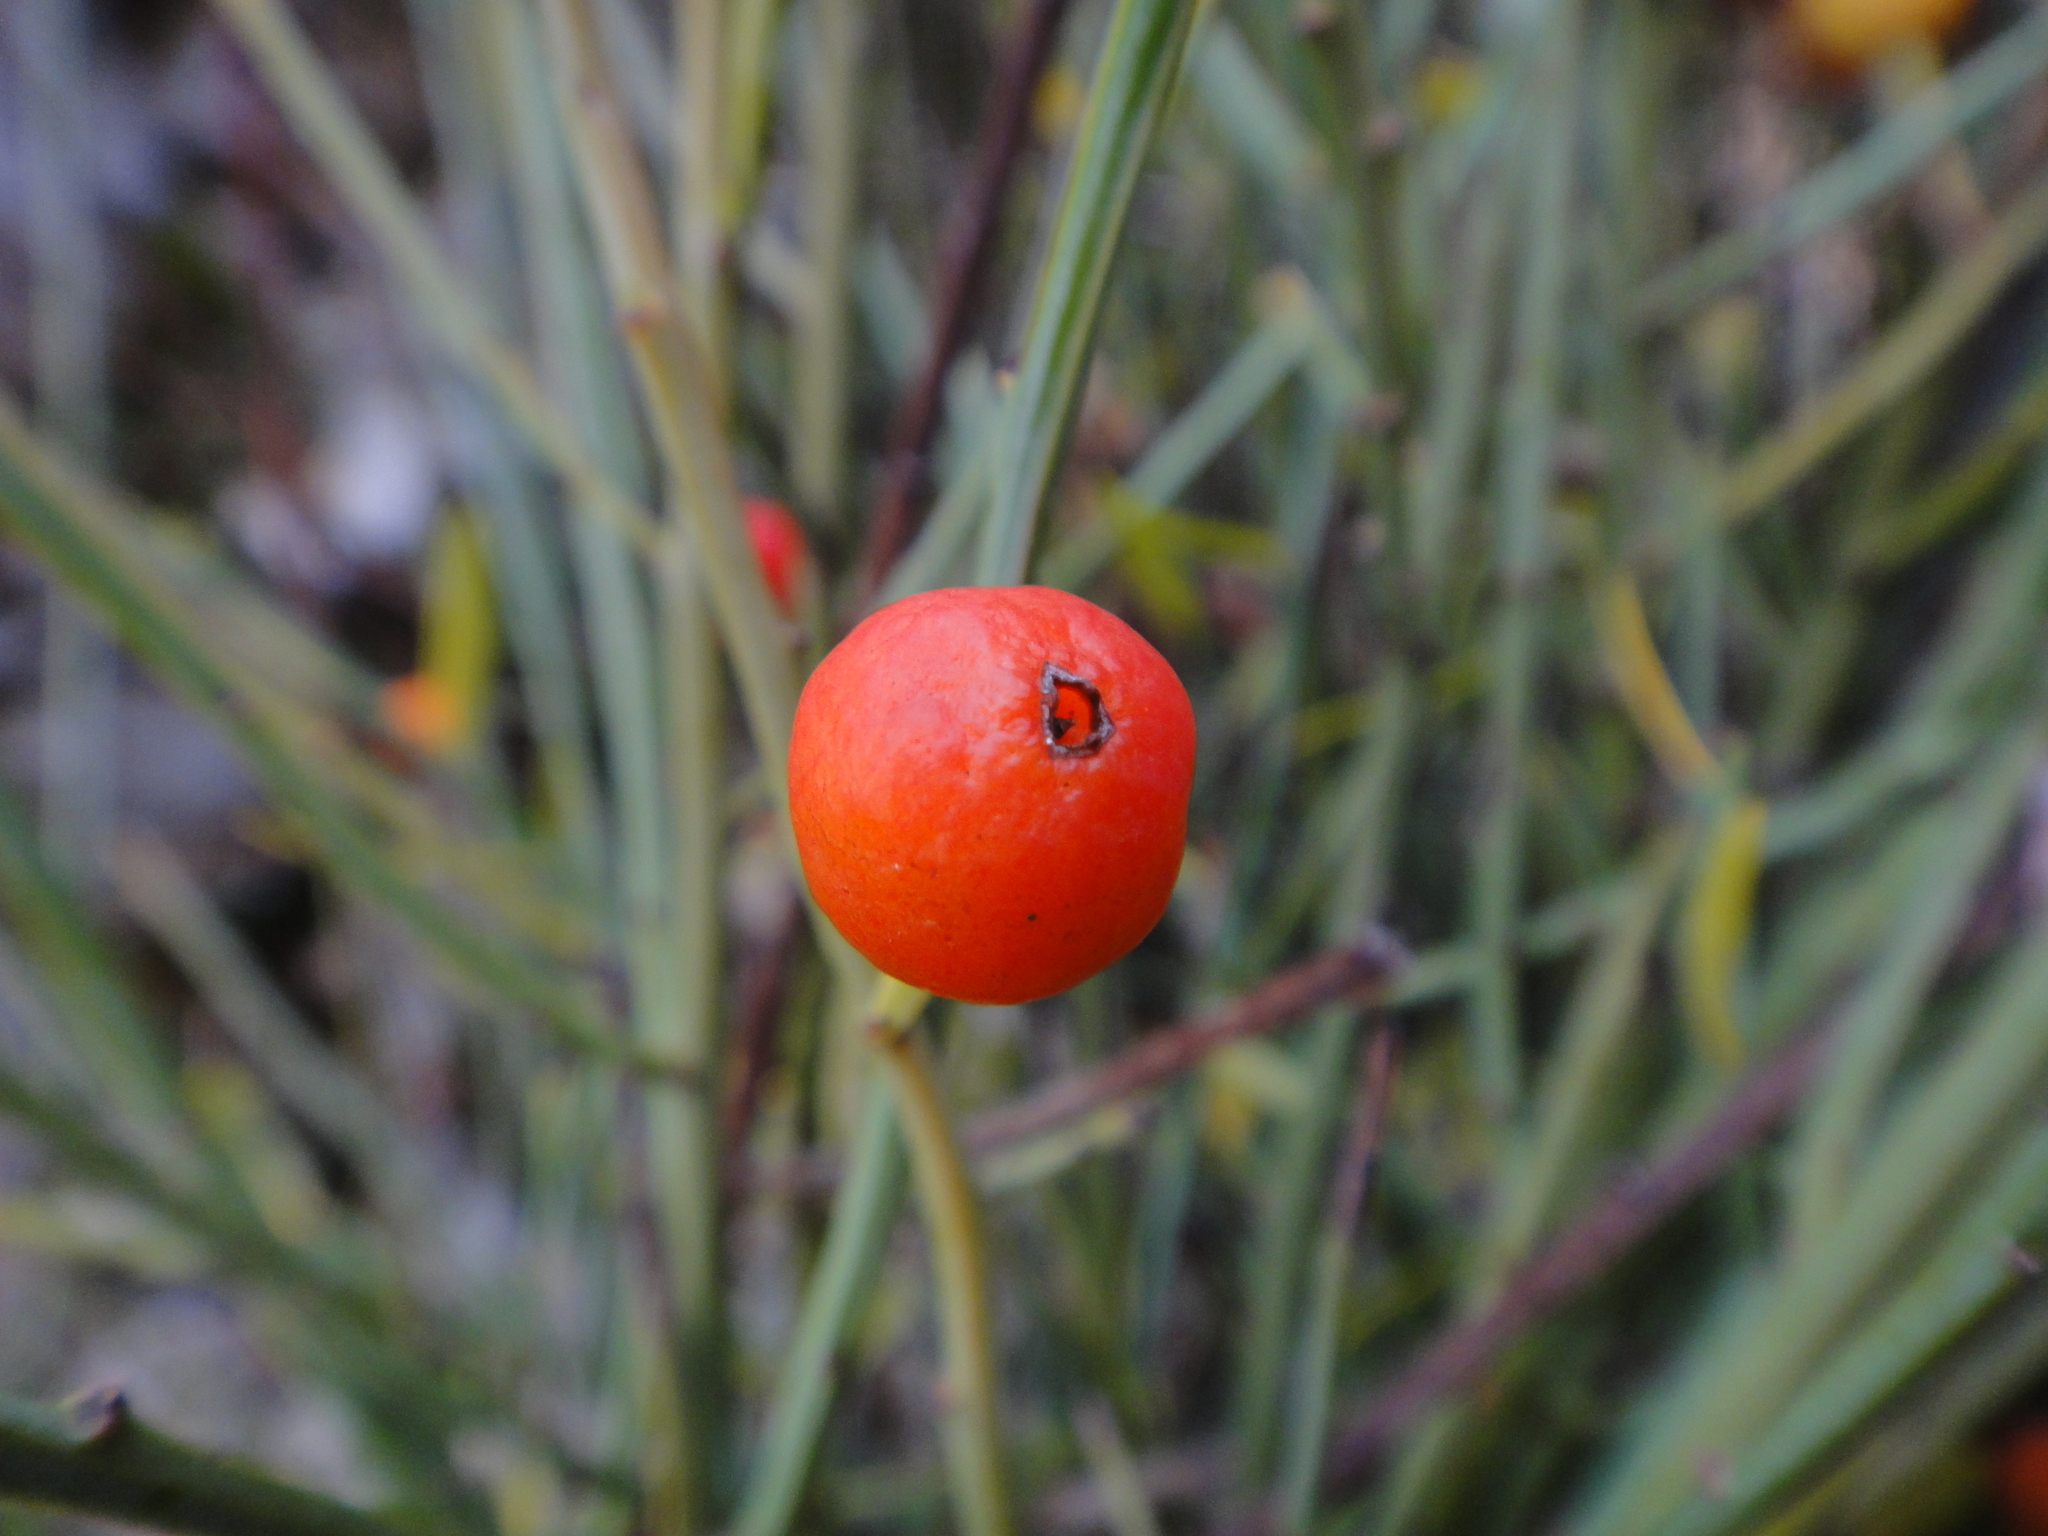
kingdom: Plantae
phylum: Tracheophyta
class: Magnoliopsida
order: Santalales
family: Santalaceae
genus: Osyris
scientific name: Osyris alba
